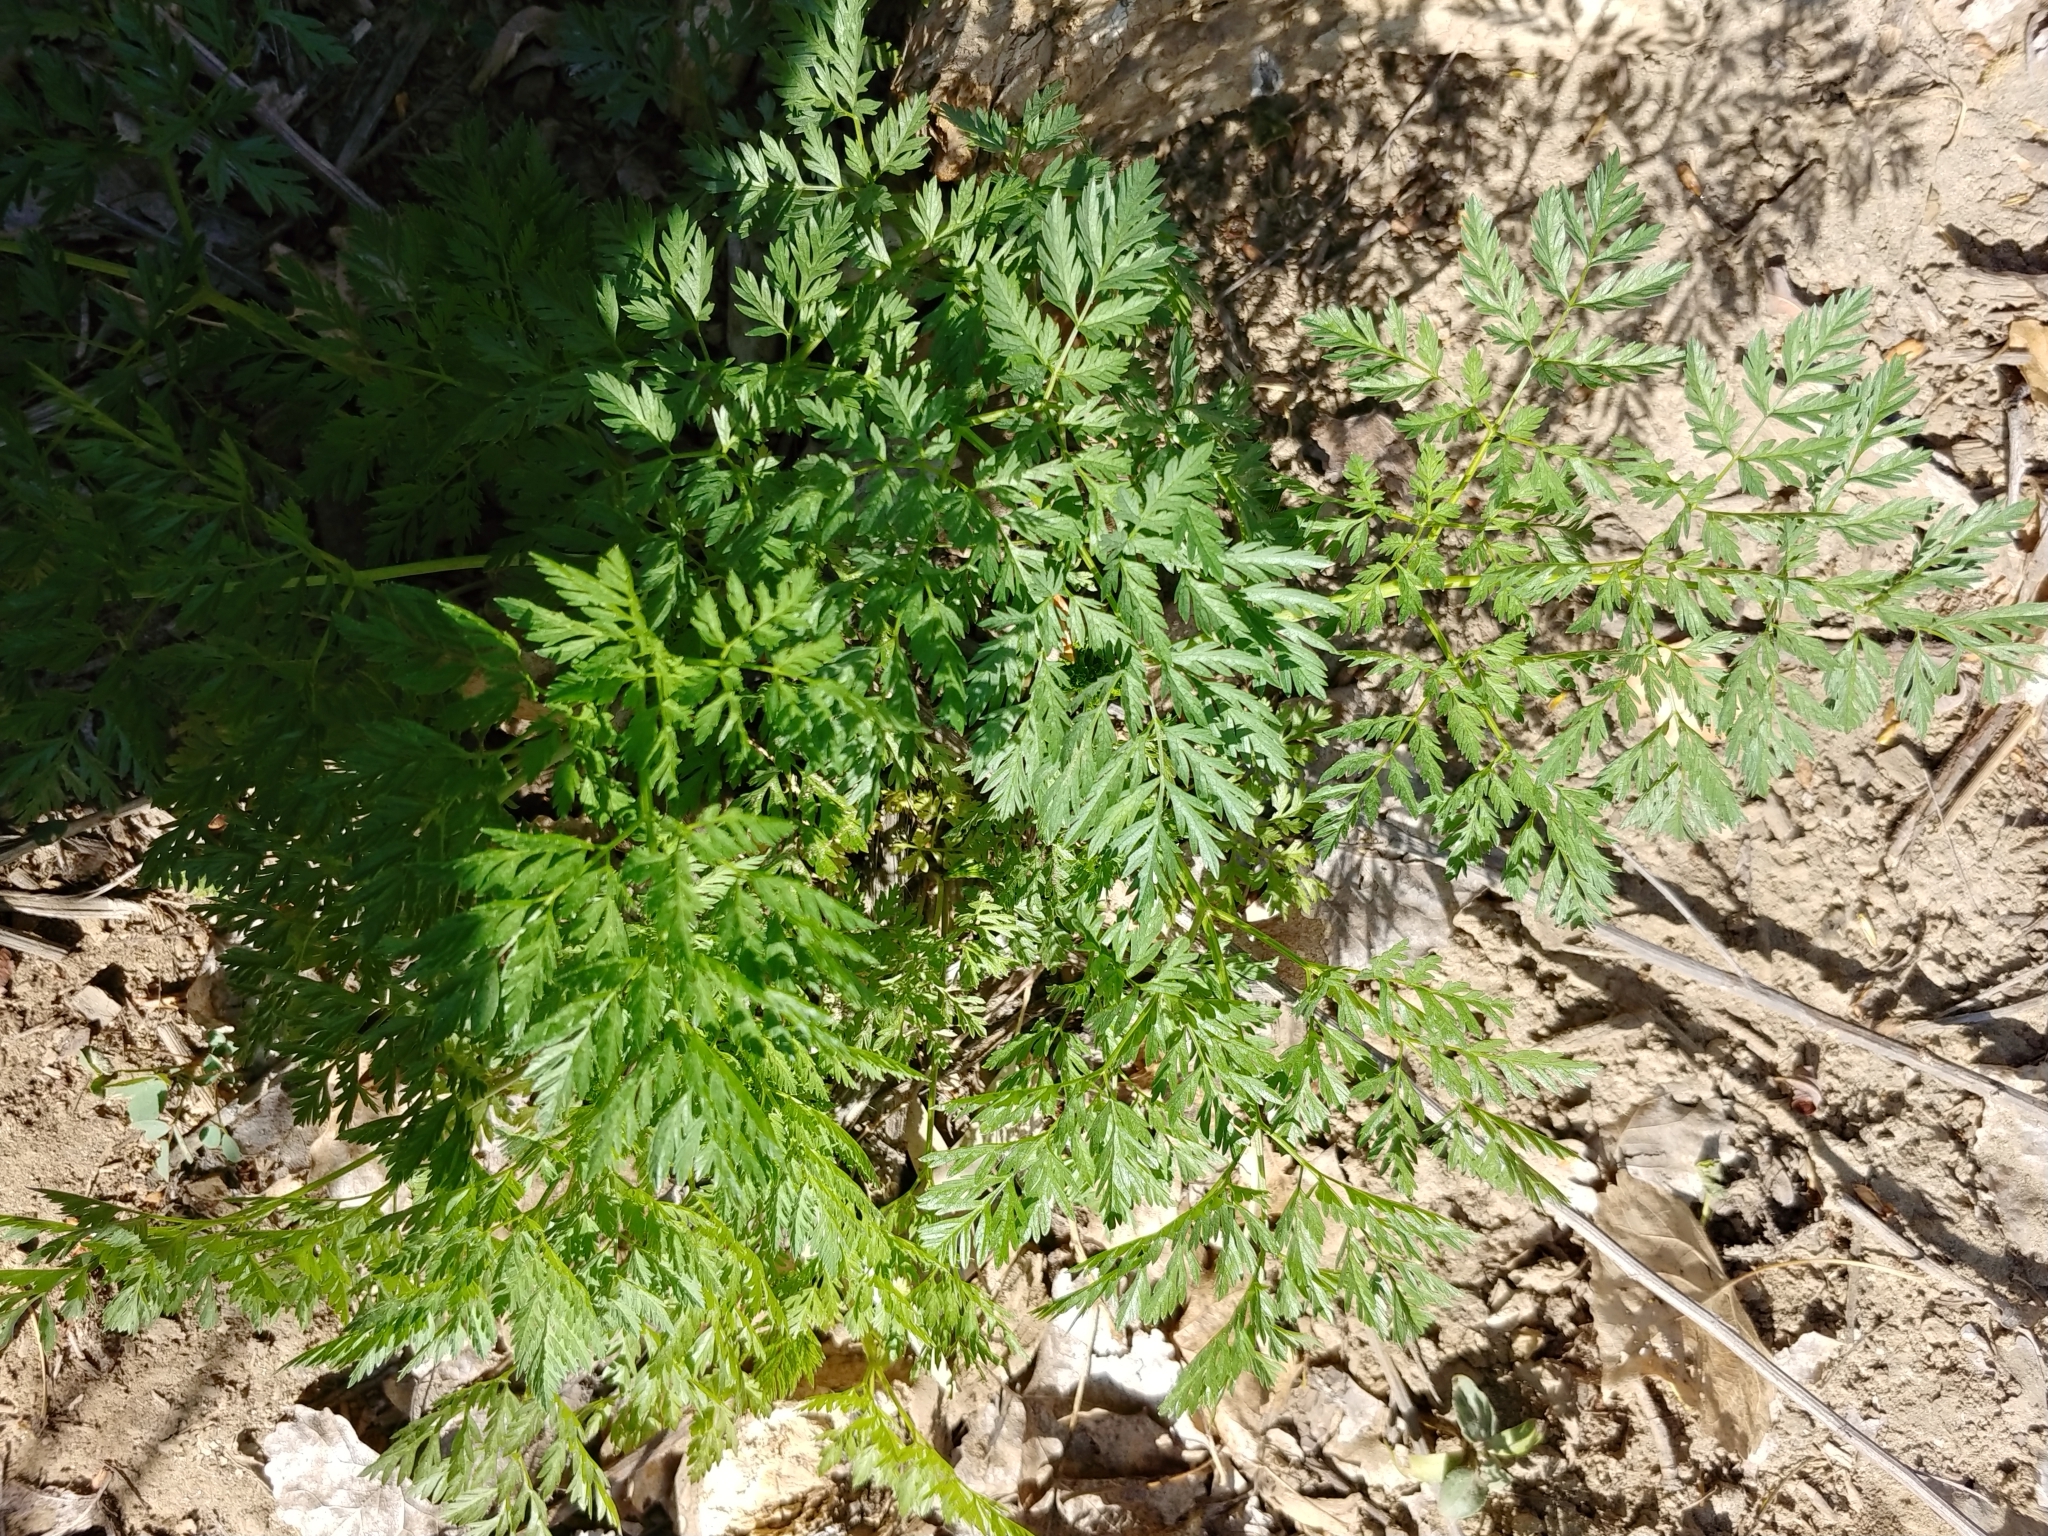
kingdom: Plantae
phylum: Tracheophyta
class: Magnoliopsida
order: Apiales
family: Apiaceae
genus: Conium
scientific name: Conium maculatum
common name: Hemlock
